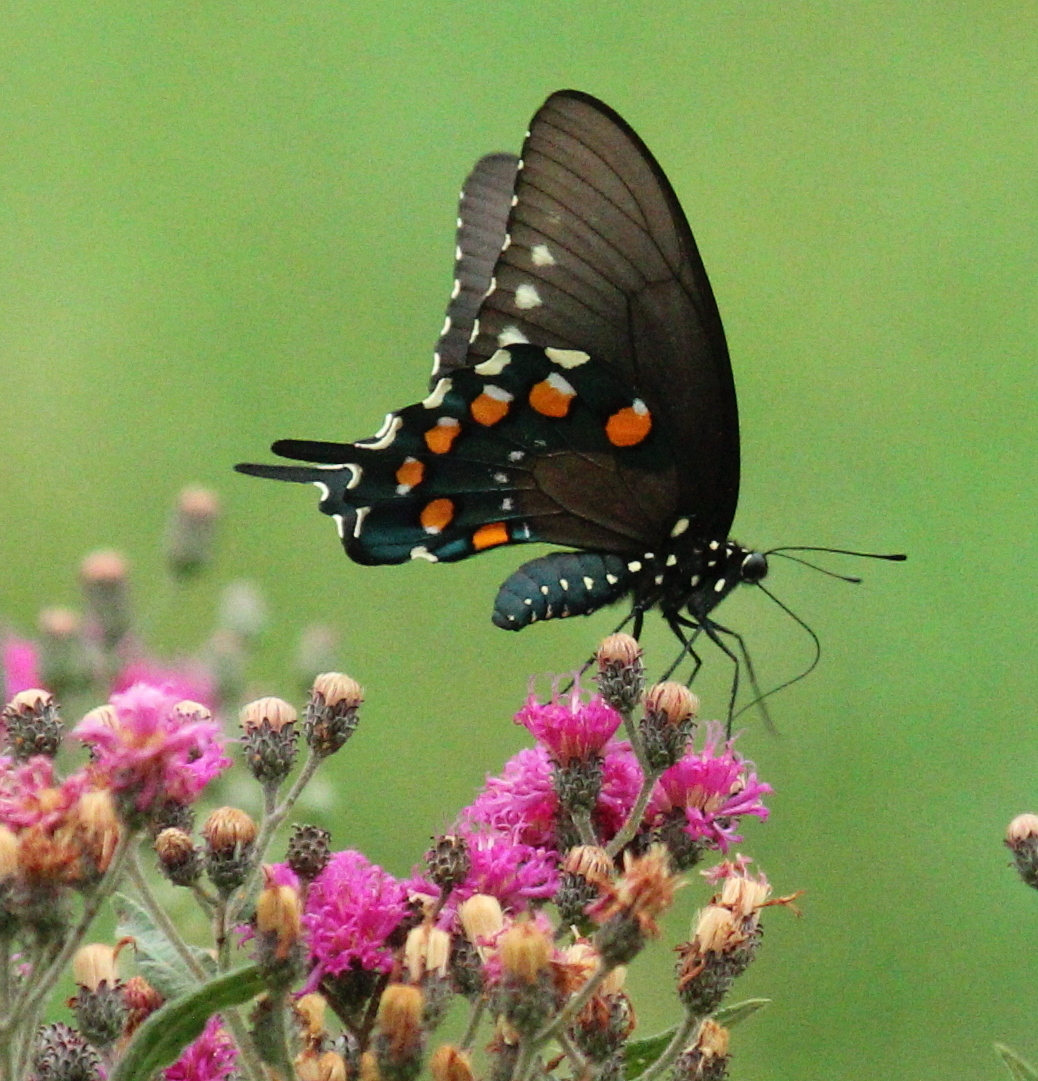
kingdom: Animalia
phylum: Arthropoda
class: Insecta
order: Lepidoptera
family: Papilionidae
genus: Battus
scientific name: Battus philenor
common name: Pipevine swallowtail
